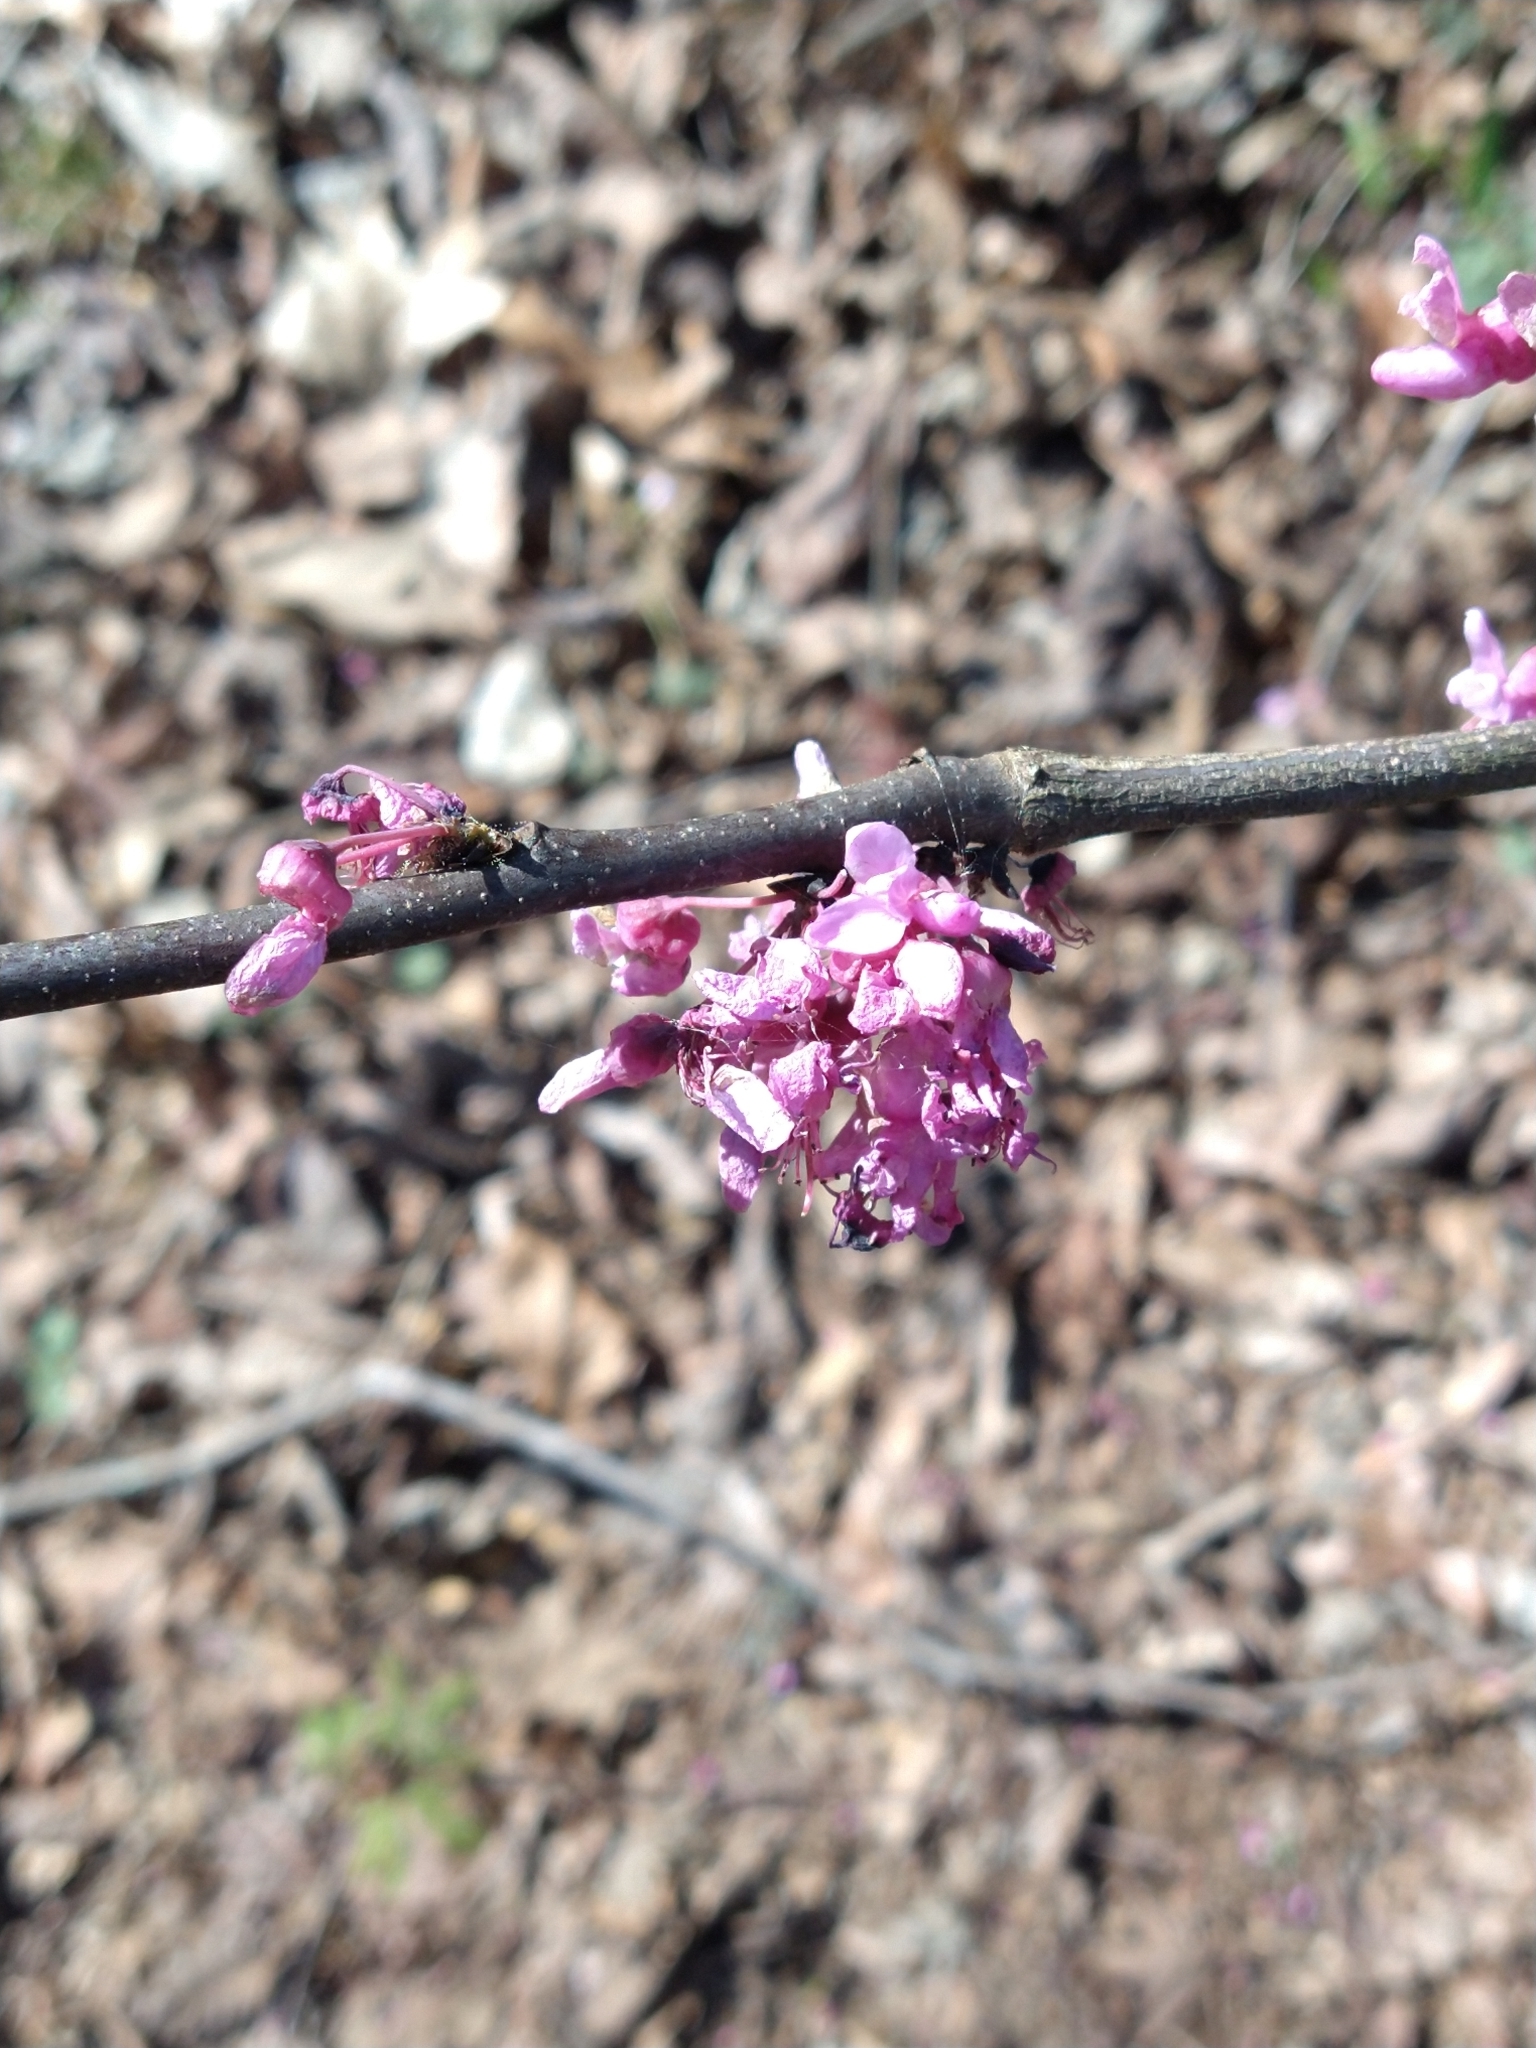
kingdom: Plantae
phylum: Tracheophyta
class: Magnoliopsida
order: Fabales
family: Fabaceae
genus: Cercis
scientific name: Cercis canadensis
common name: Eastern redbud
